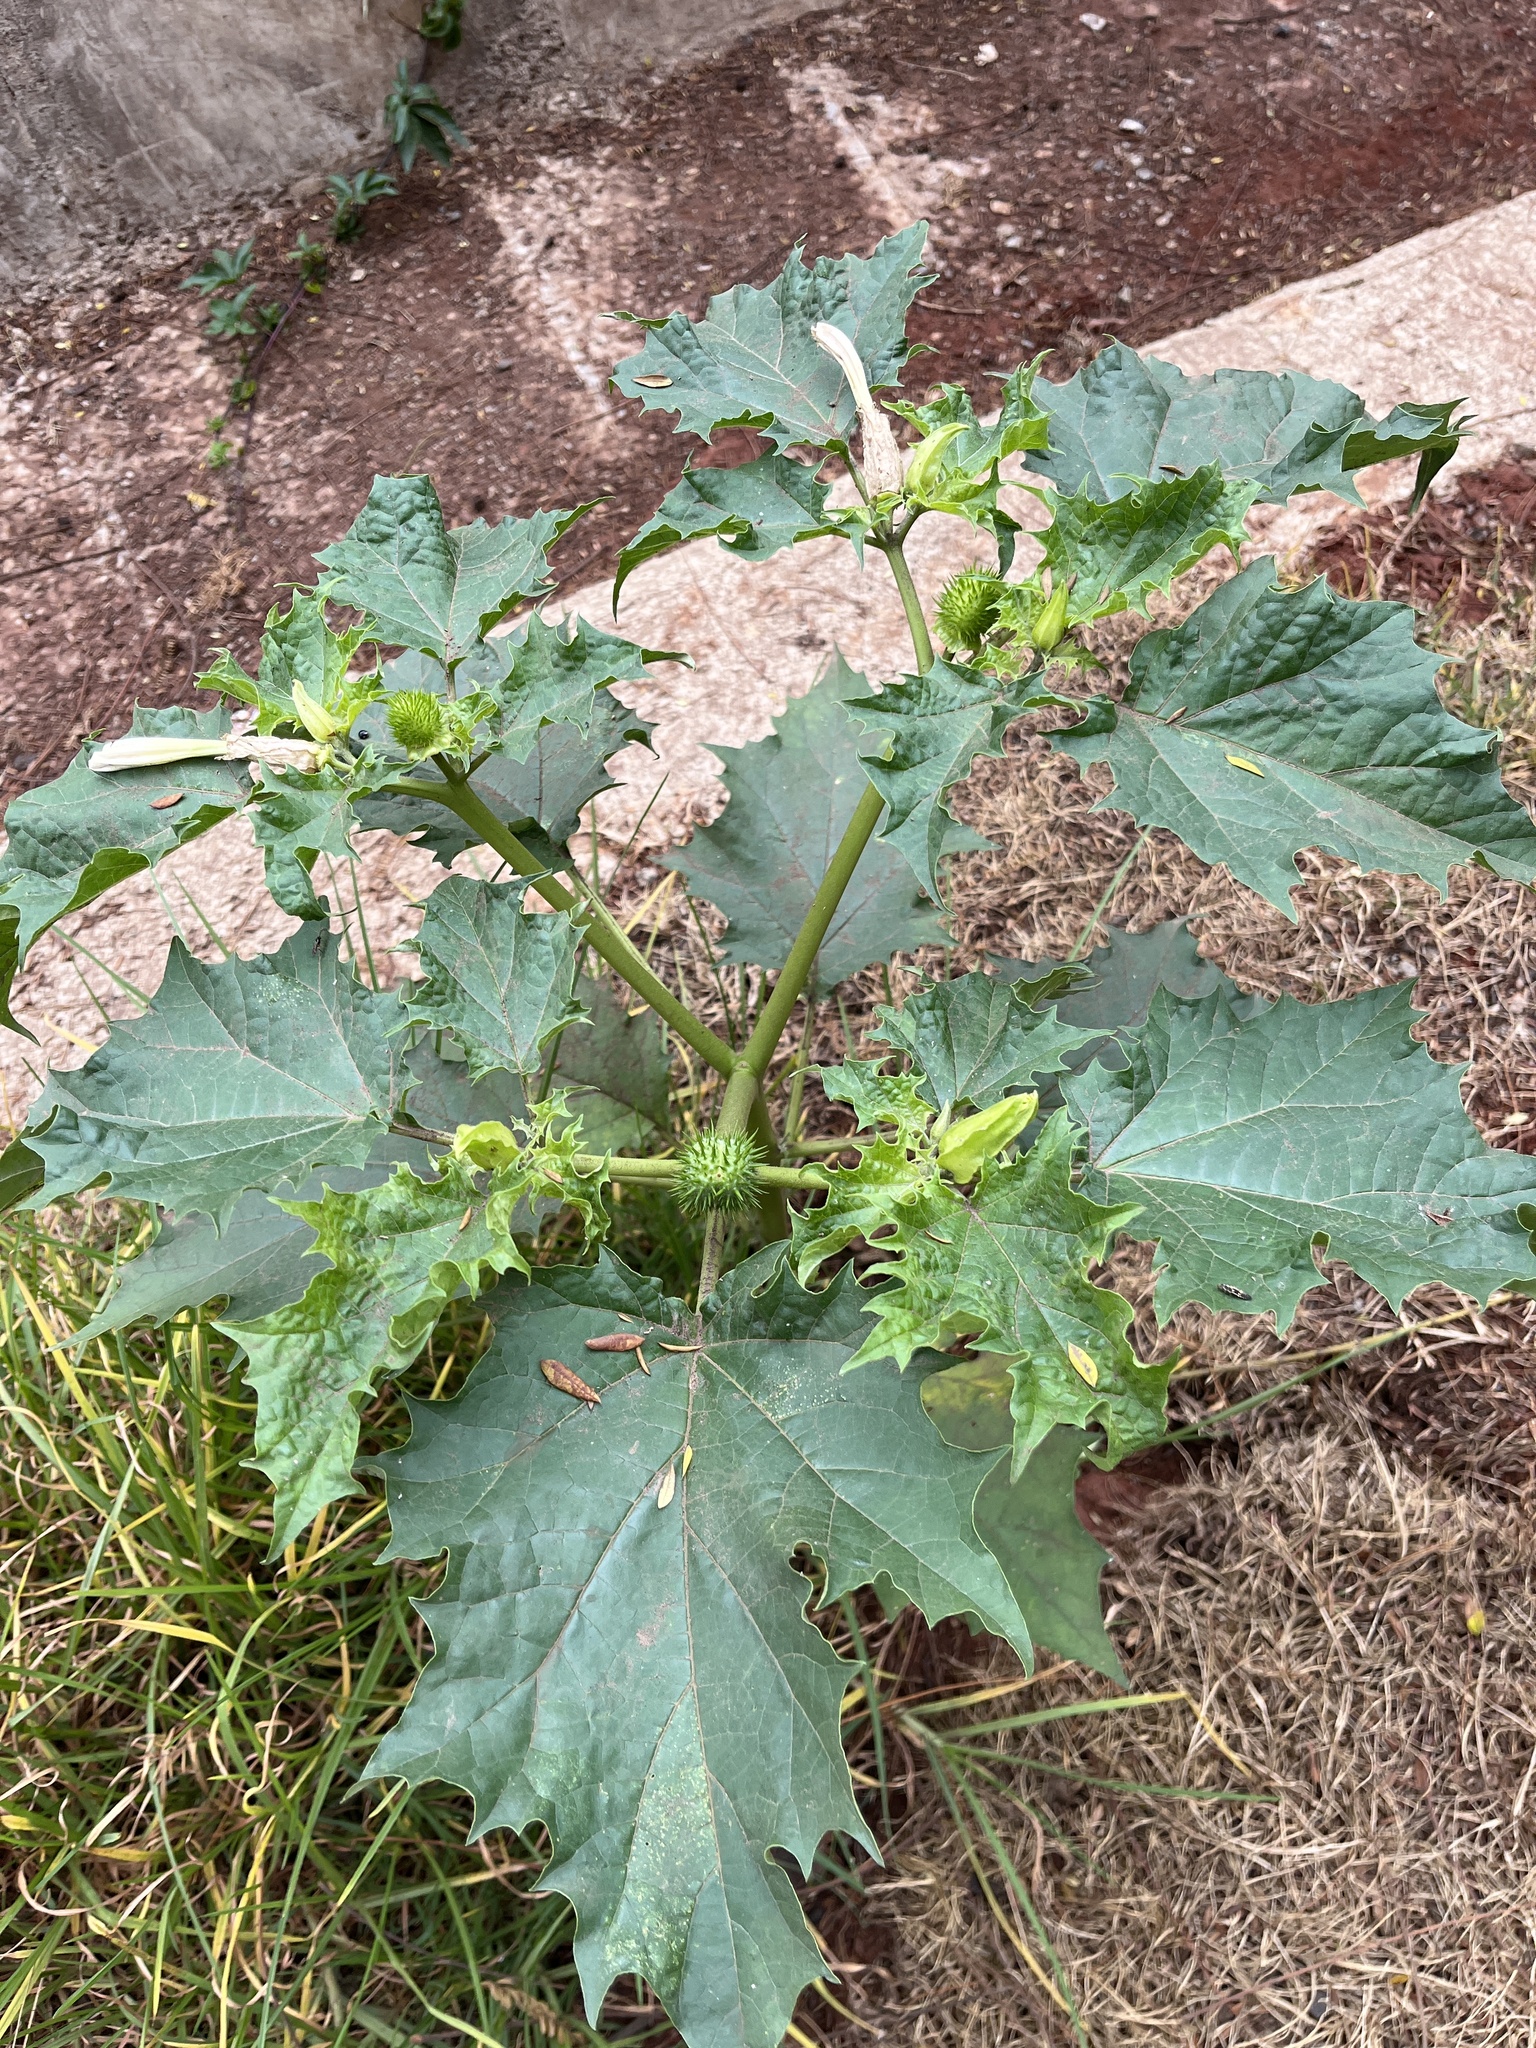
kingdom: Plantae
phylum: Tracheophyta
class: Magnoliopsida
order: Solanales
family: Solanaceae
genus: Datura
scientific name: Datura stramonium
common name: Thorn-apple
